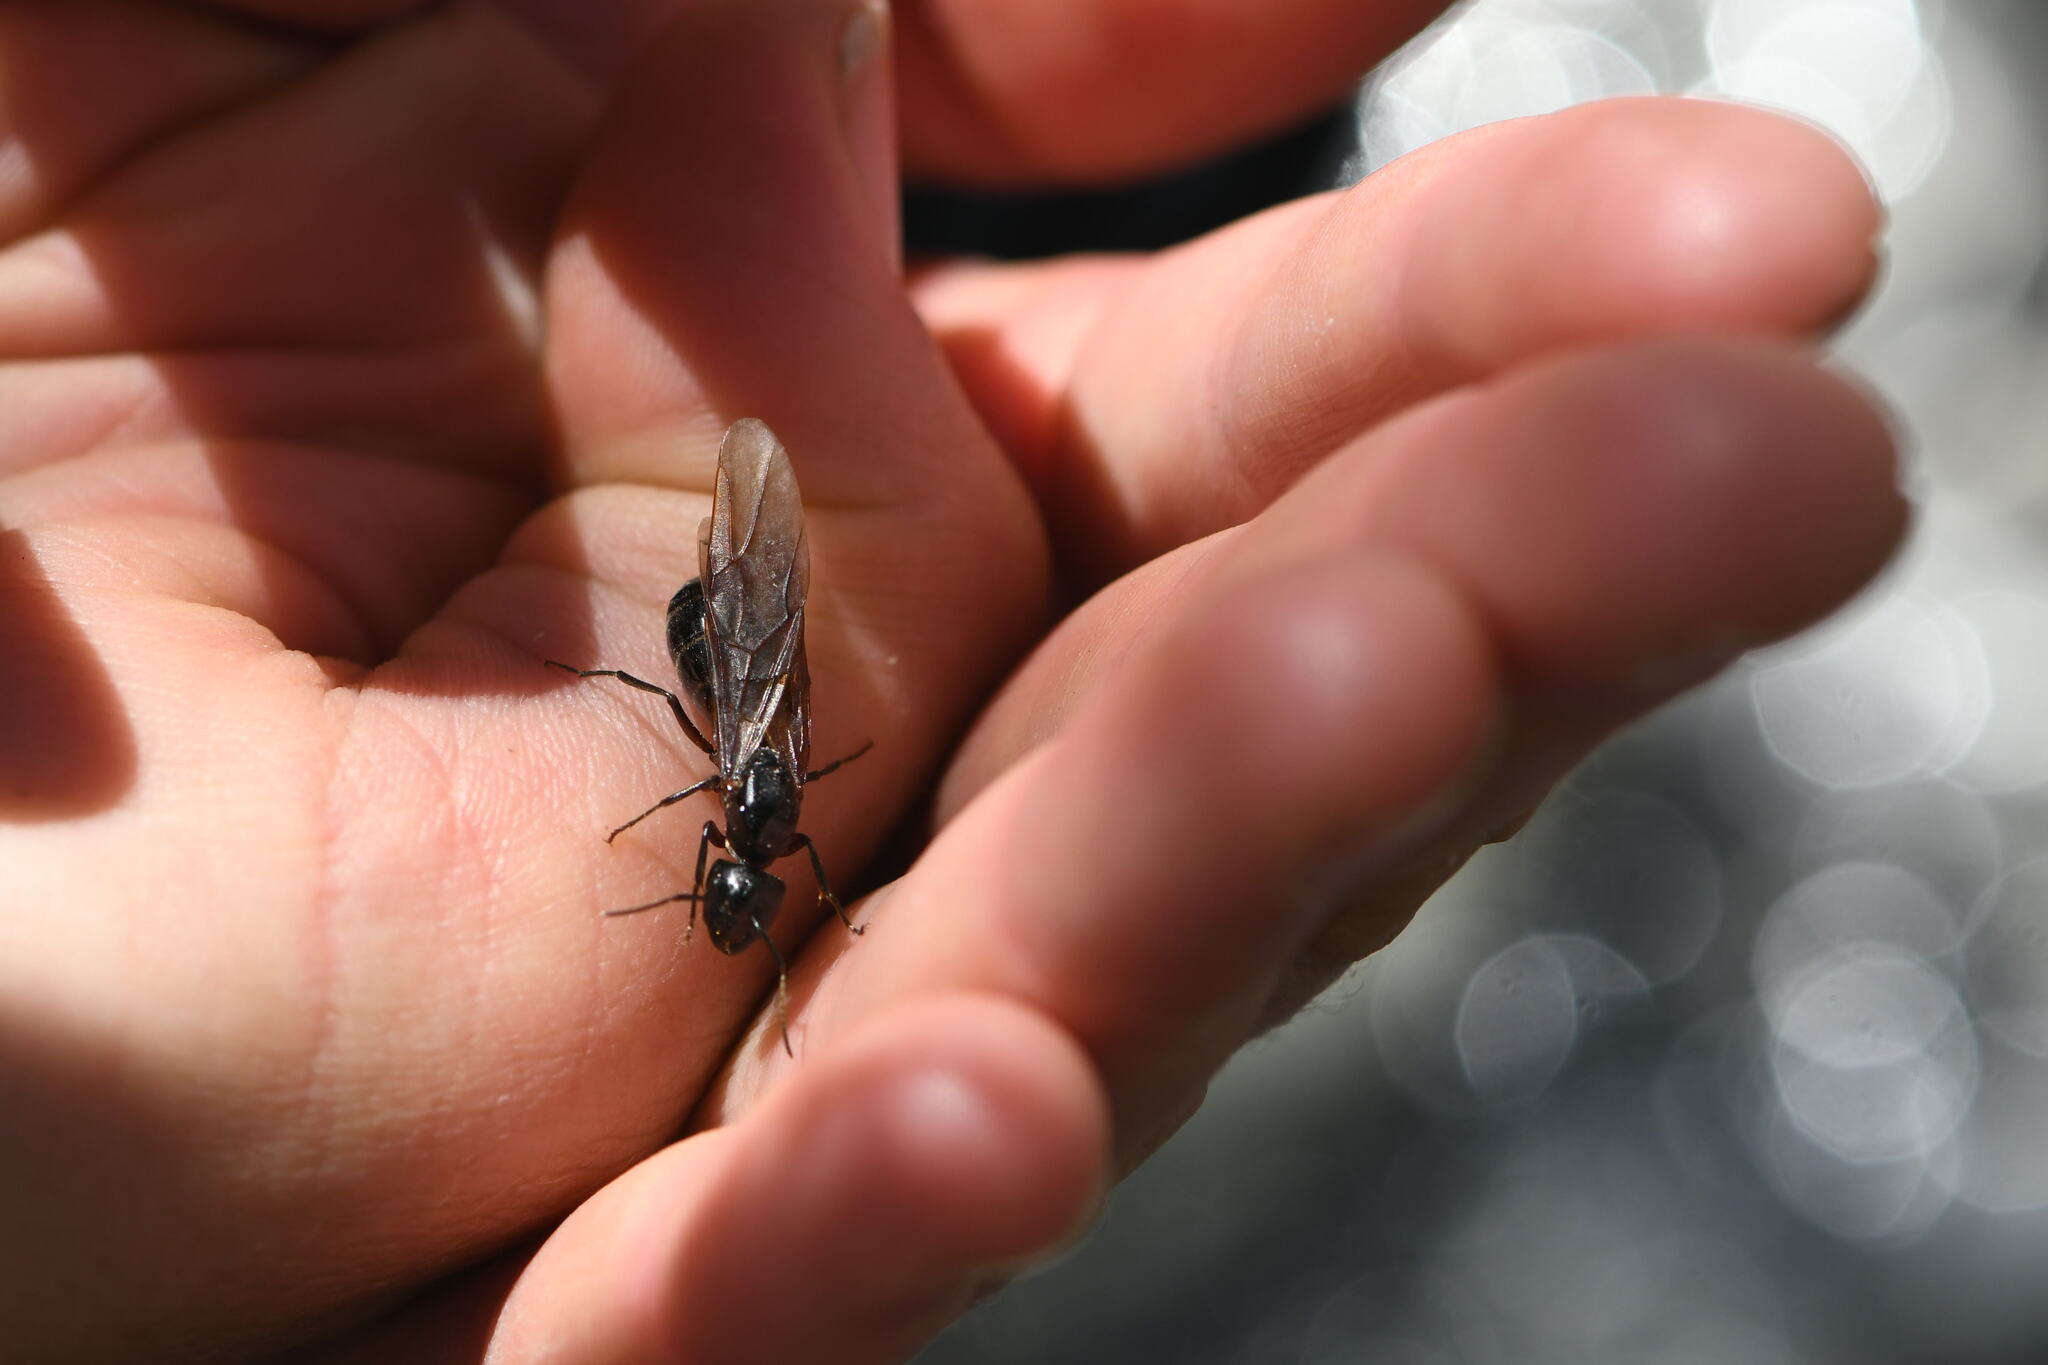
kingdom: Animalia
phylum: Arthropoda
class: Insecta
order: Hymenoptera
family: Formicidae
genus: Camponotus
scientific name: Camponotus ligniperdus
